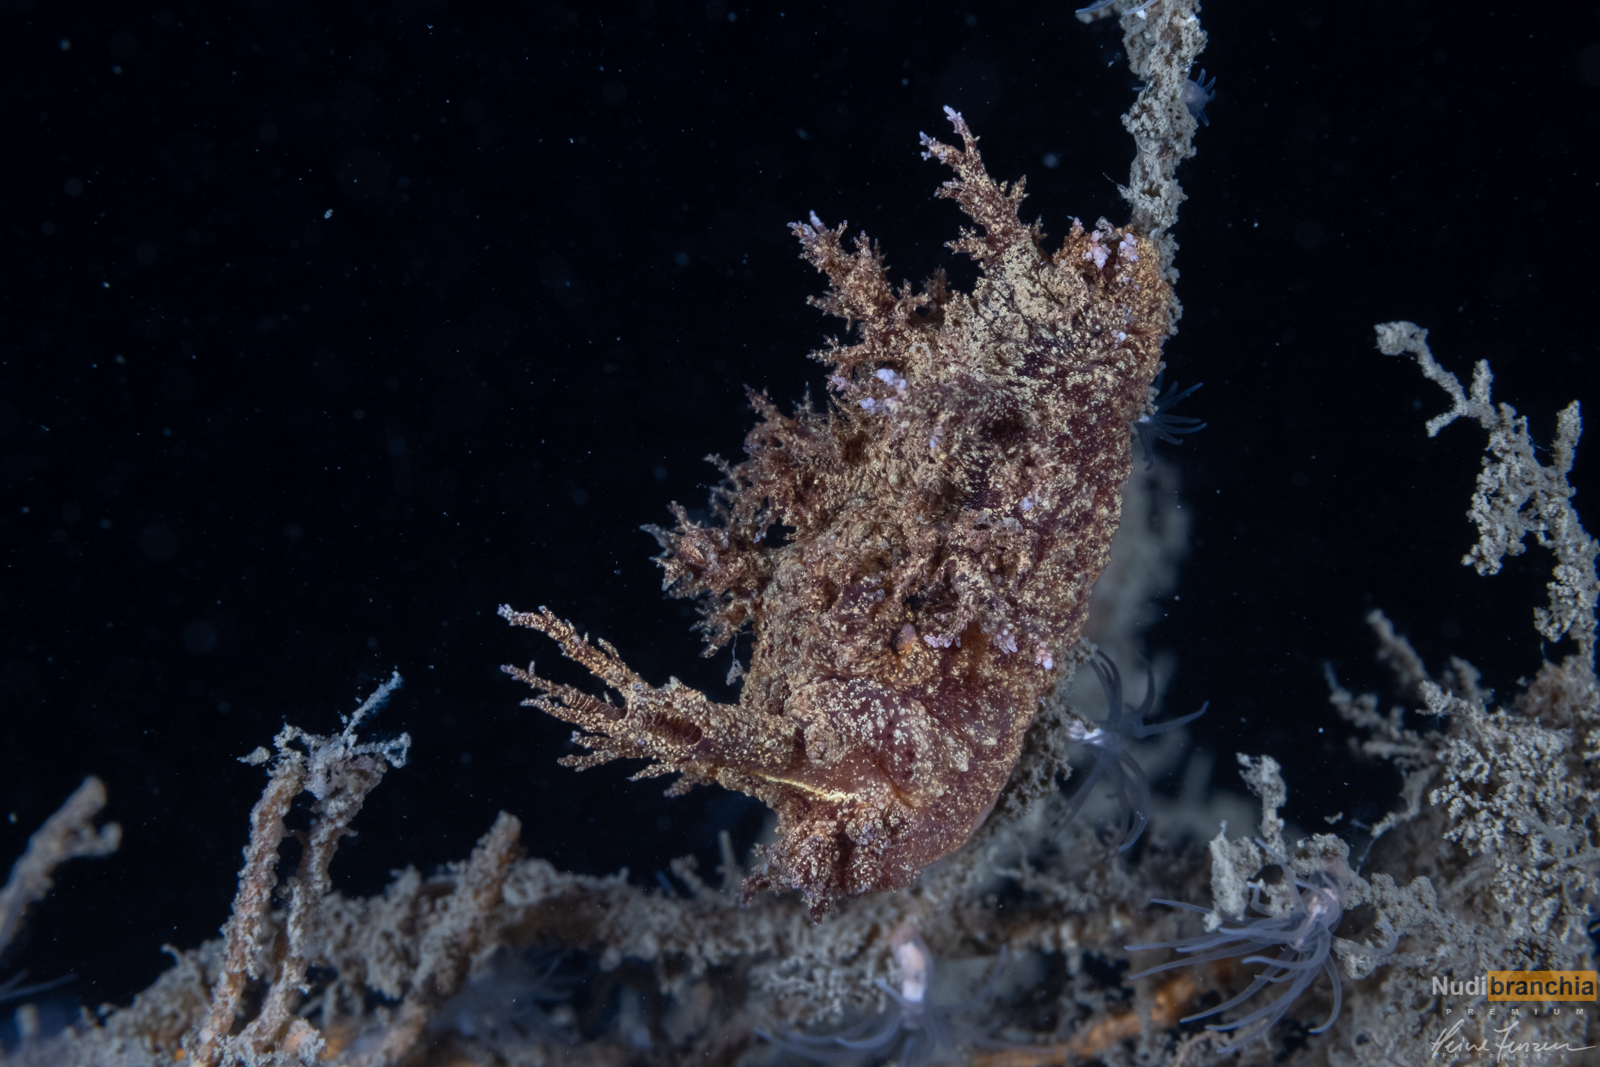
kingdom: Animalia
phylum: Mollusca
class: Gastropoda
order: Nudibranchia
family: Dendronotidae
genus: Dendronotus
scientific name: Dendronotus europaeus
